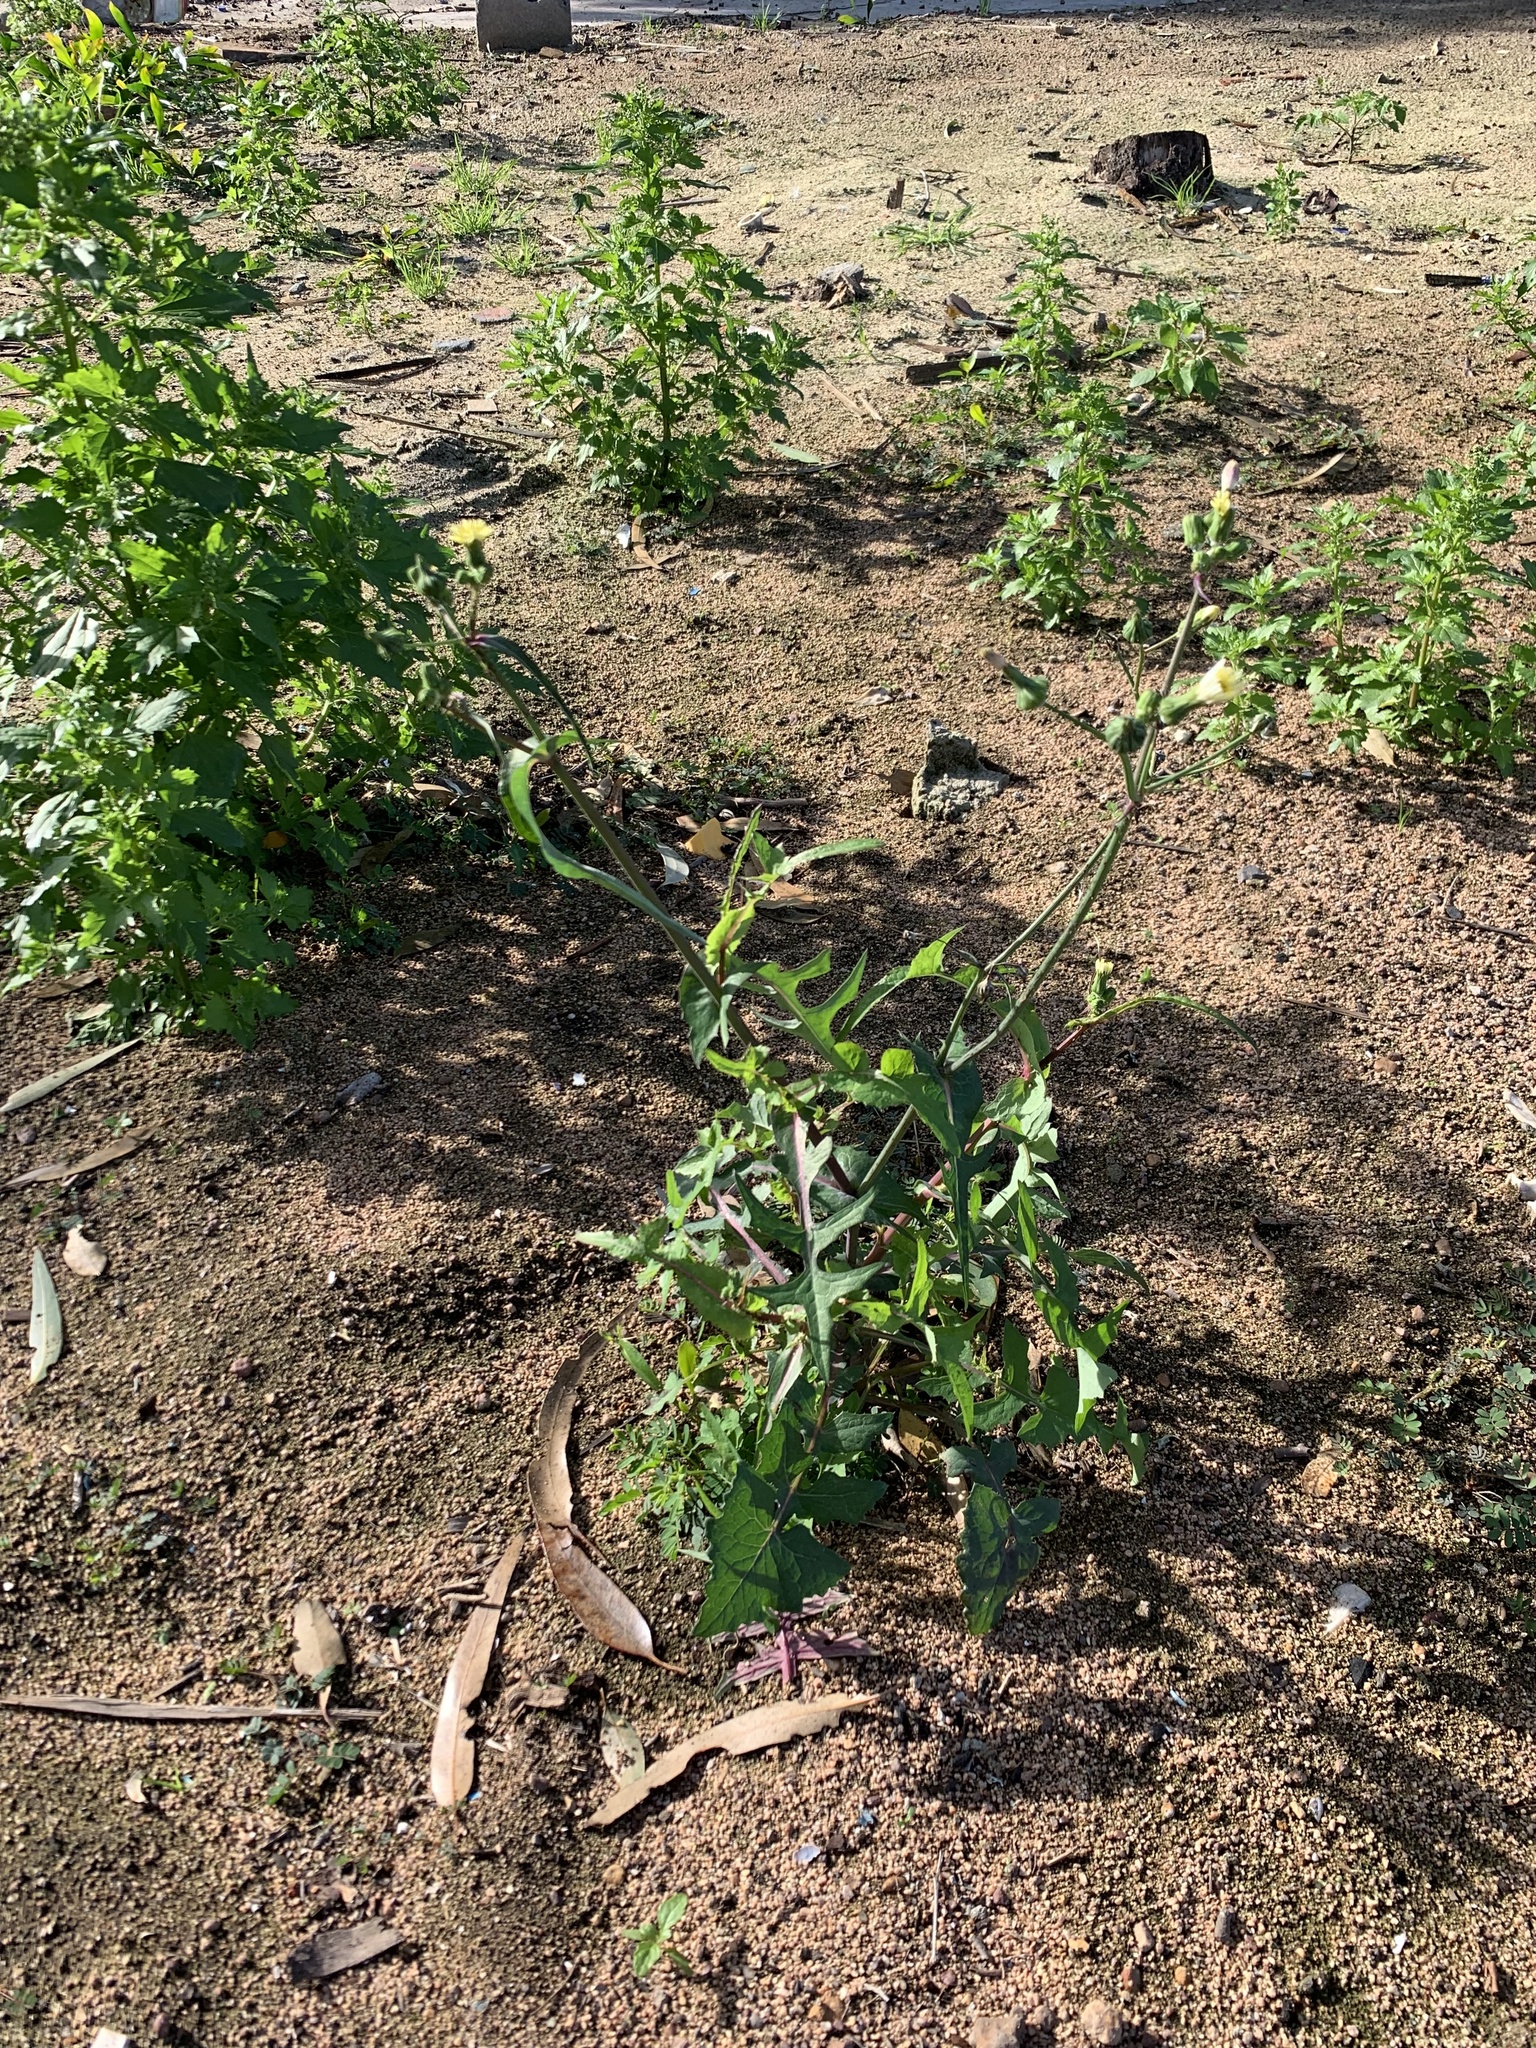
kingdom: Plantae
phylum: Tracheophyta
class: Magnoliopsida
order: Asterales
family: Asteraceae
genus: Sonchus
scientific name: Sonchus oleraceus
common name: Common sowthistle
